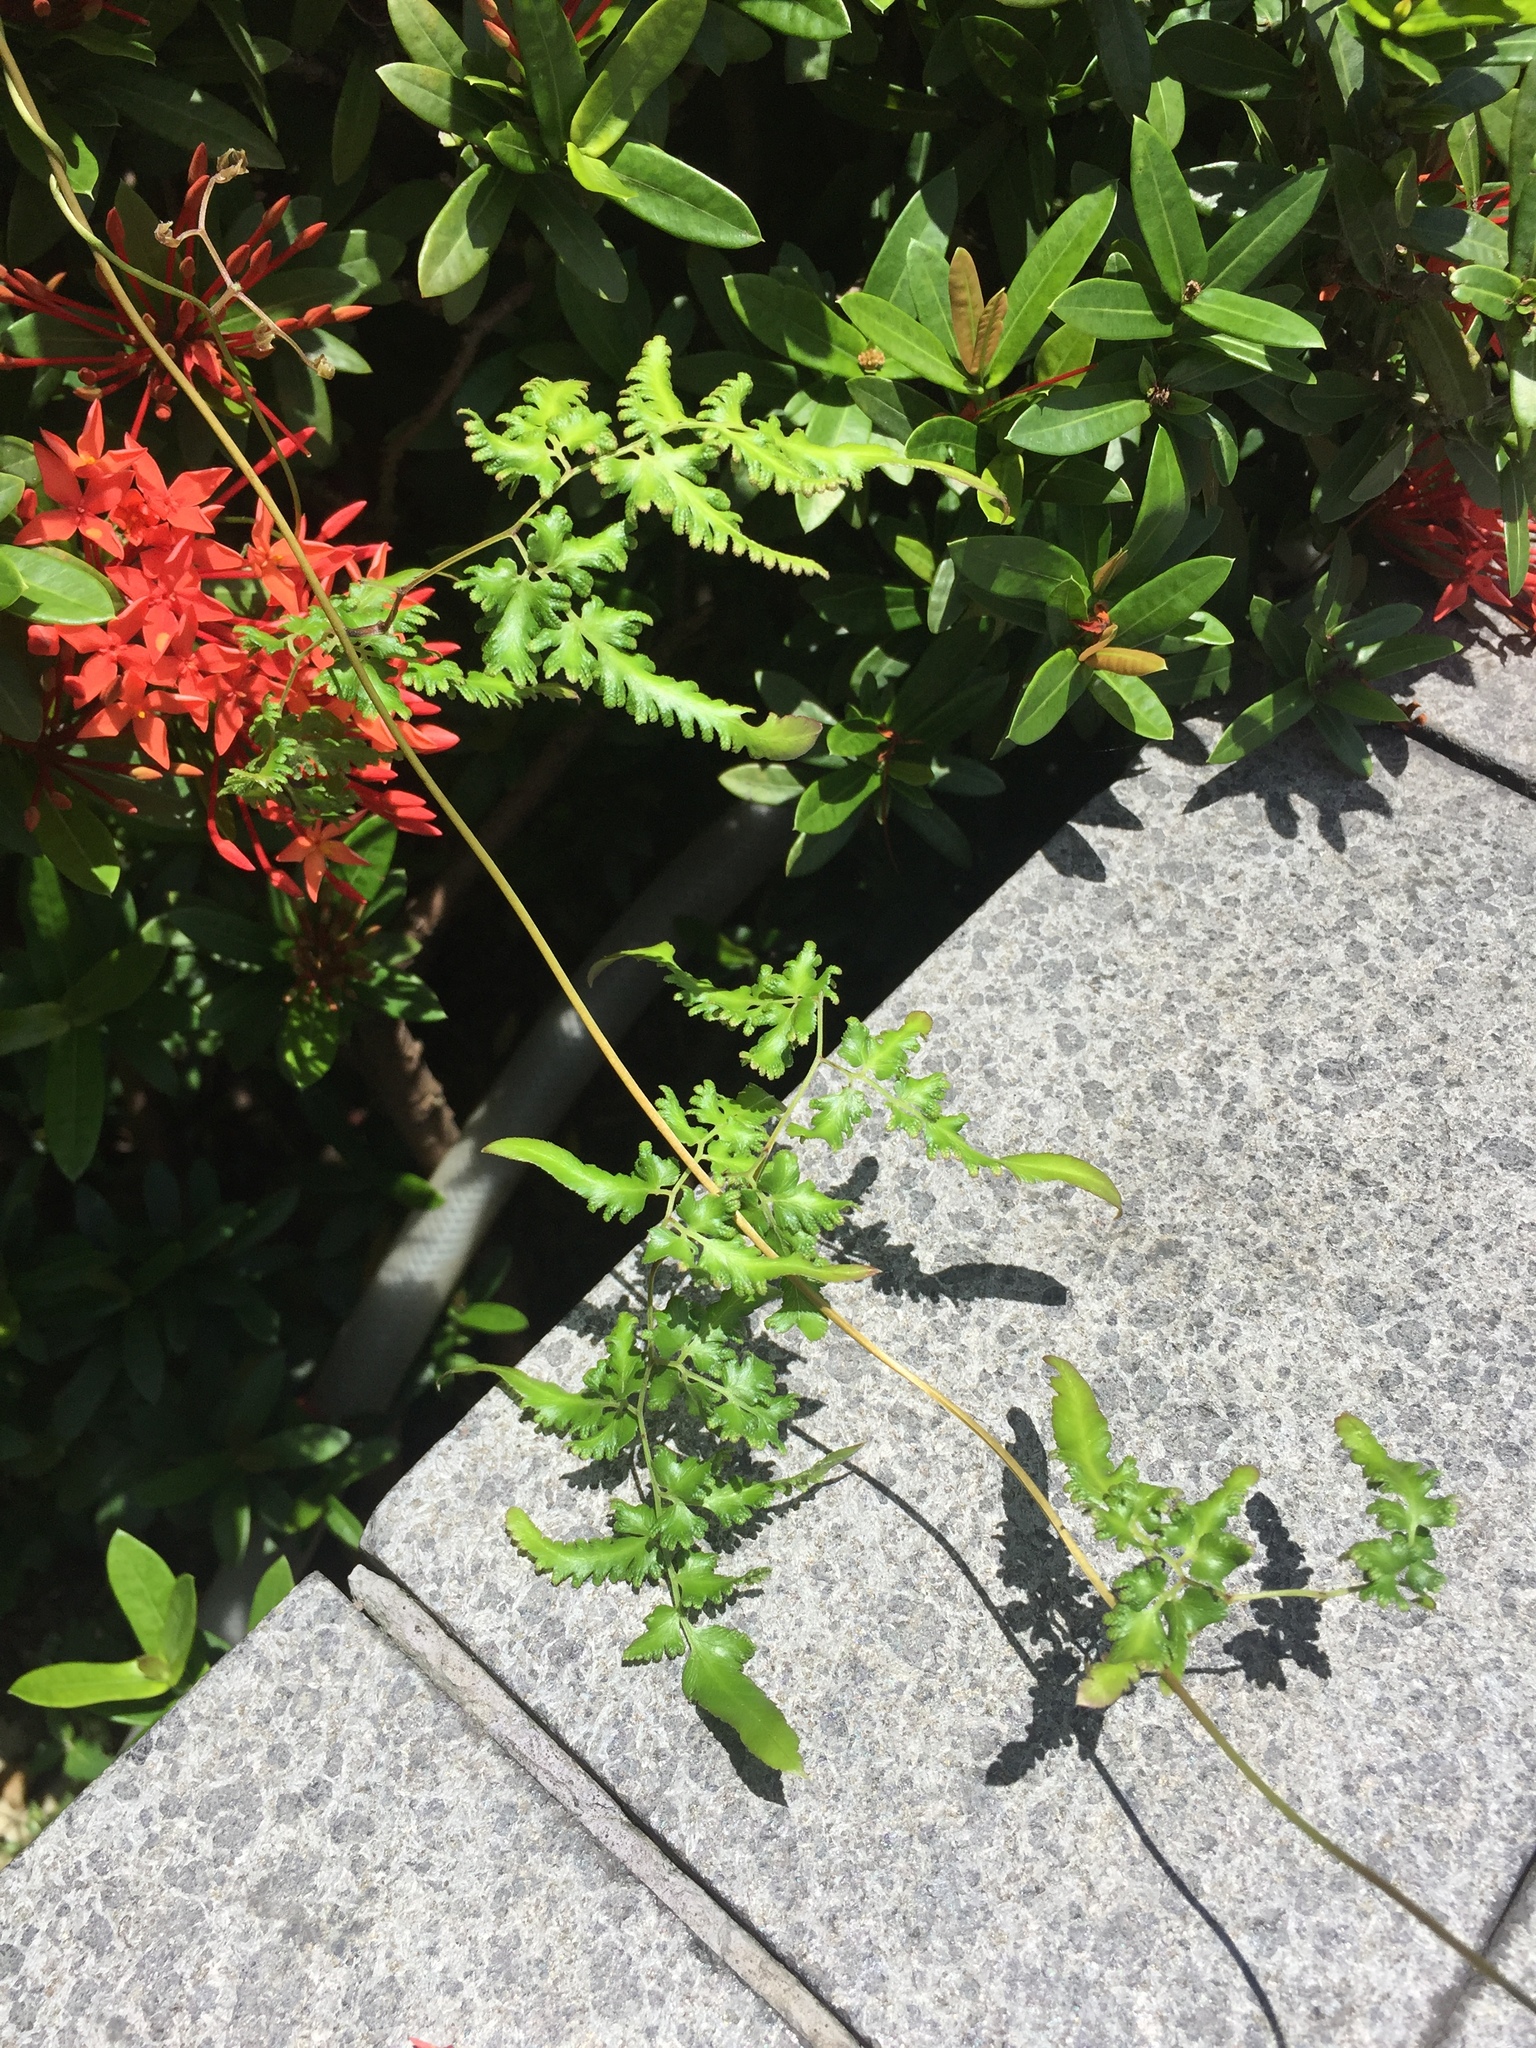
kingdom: Plantae
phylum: Tracheophyta
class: Polypodiopsida
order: Schizaeales
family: Lygodiaceae
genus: Lygodium
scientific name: Lygodium japonicum
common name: Japanese climbing fern
